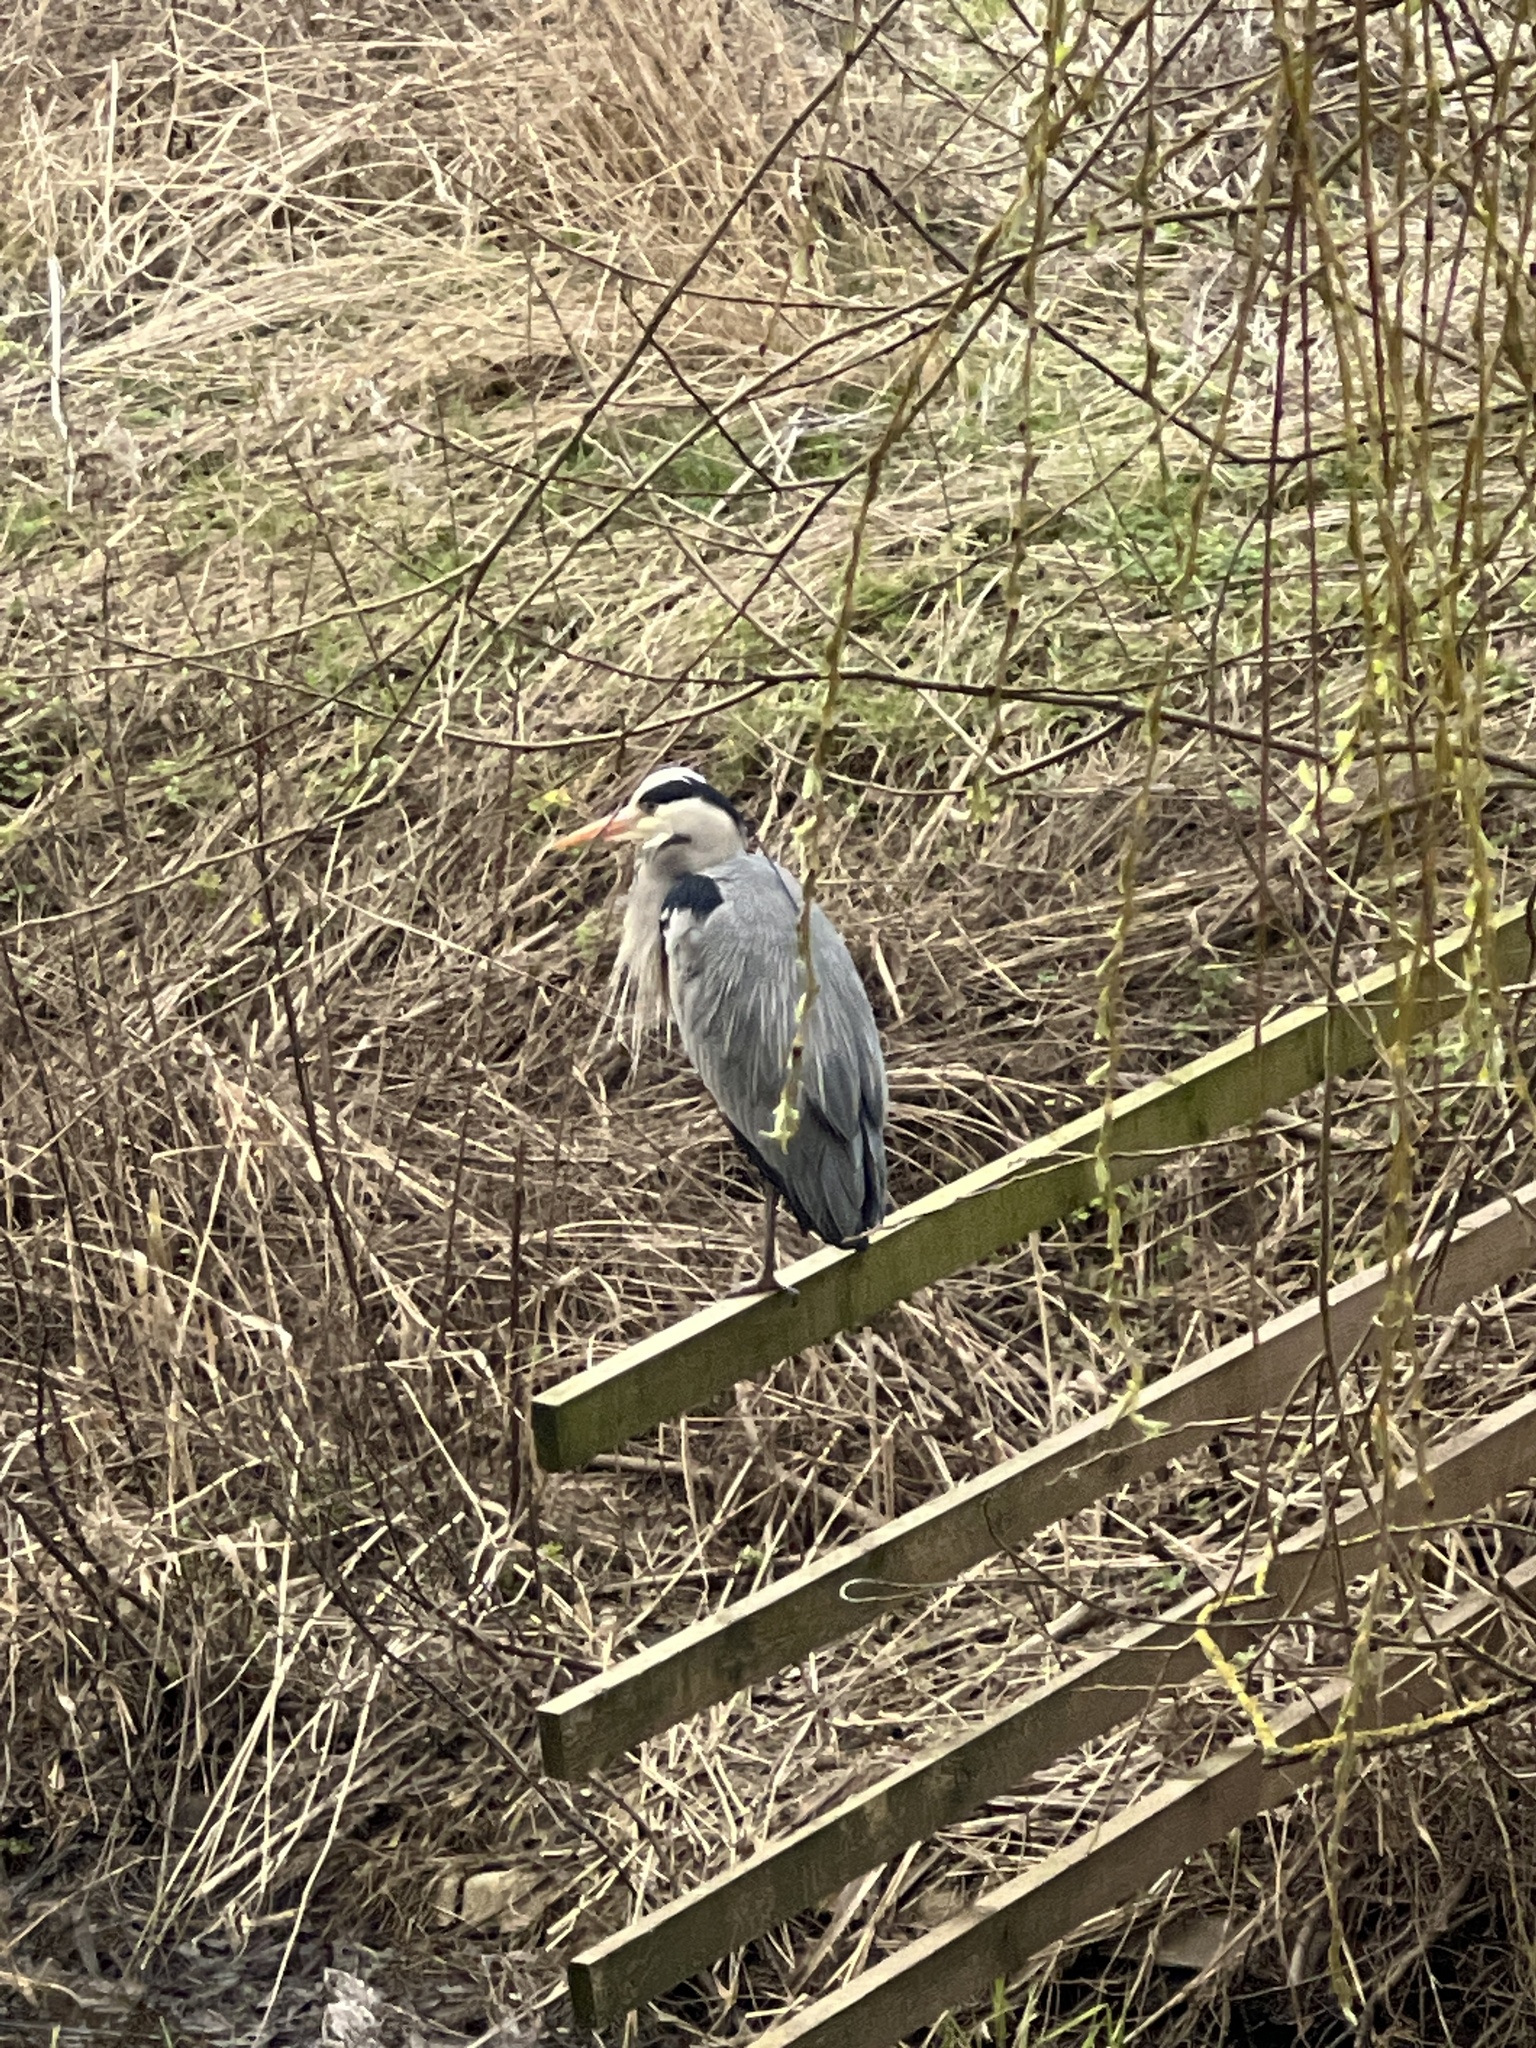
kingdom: Animalia
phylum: Chordata
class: Aves
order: Pelecaniformes
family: Ardeidae
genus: Ardea
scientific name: Ardea cinerea
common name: Grey heron
